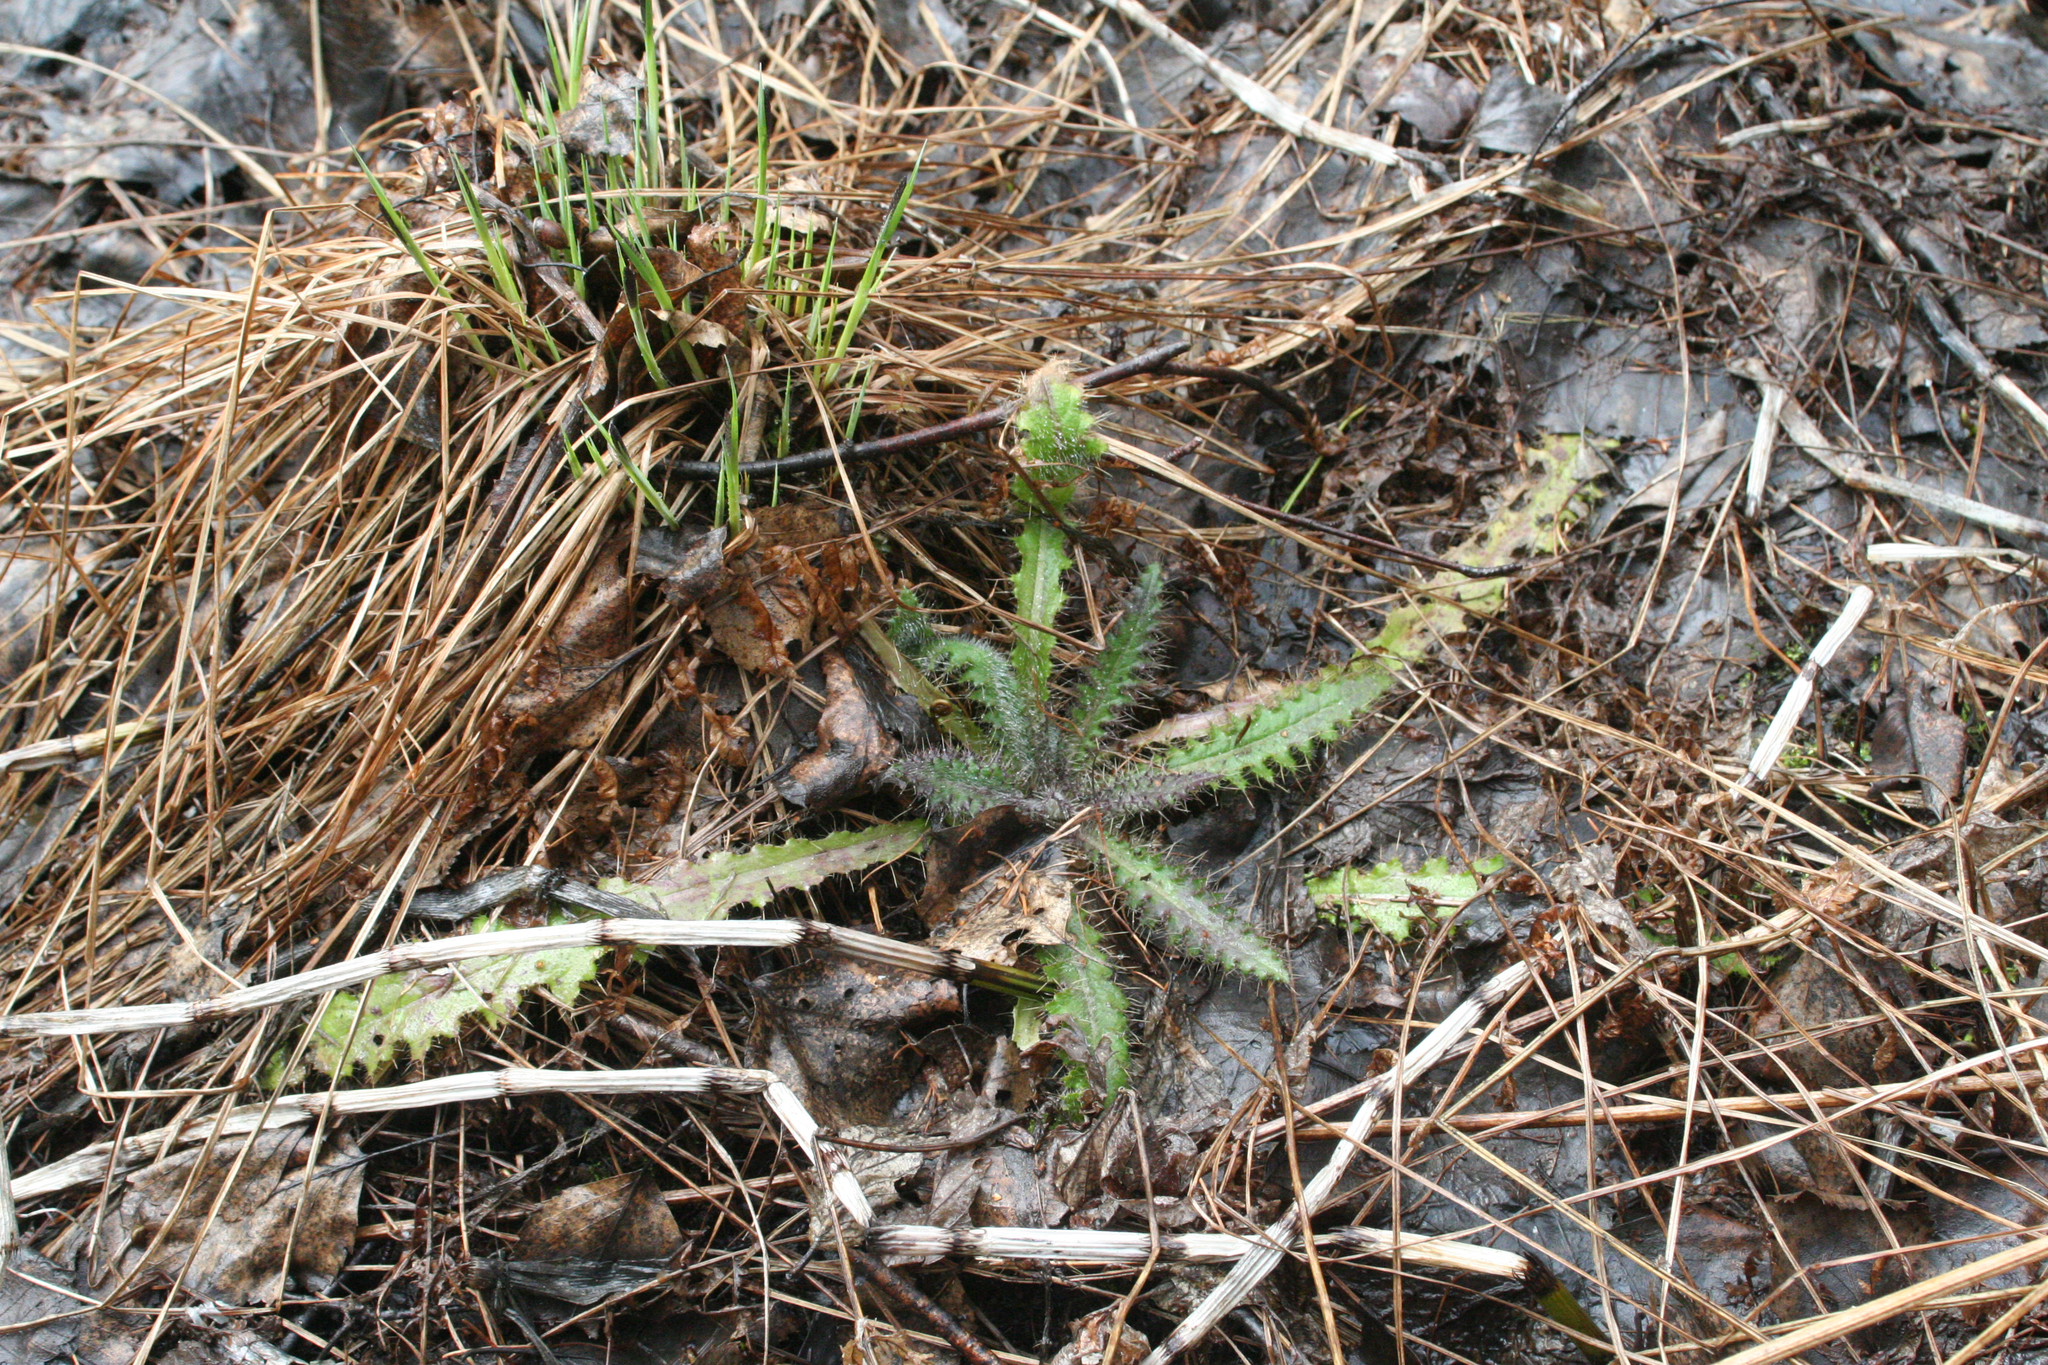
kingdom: Plantae
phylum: Tracheophyta
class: Magnoliopsida
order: Asterales
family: Asteraceae
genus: Cirsium
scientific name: Cirsium palustre
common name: Marsh thistle
